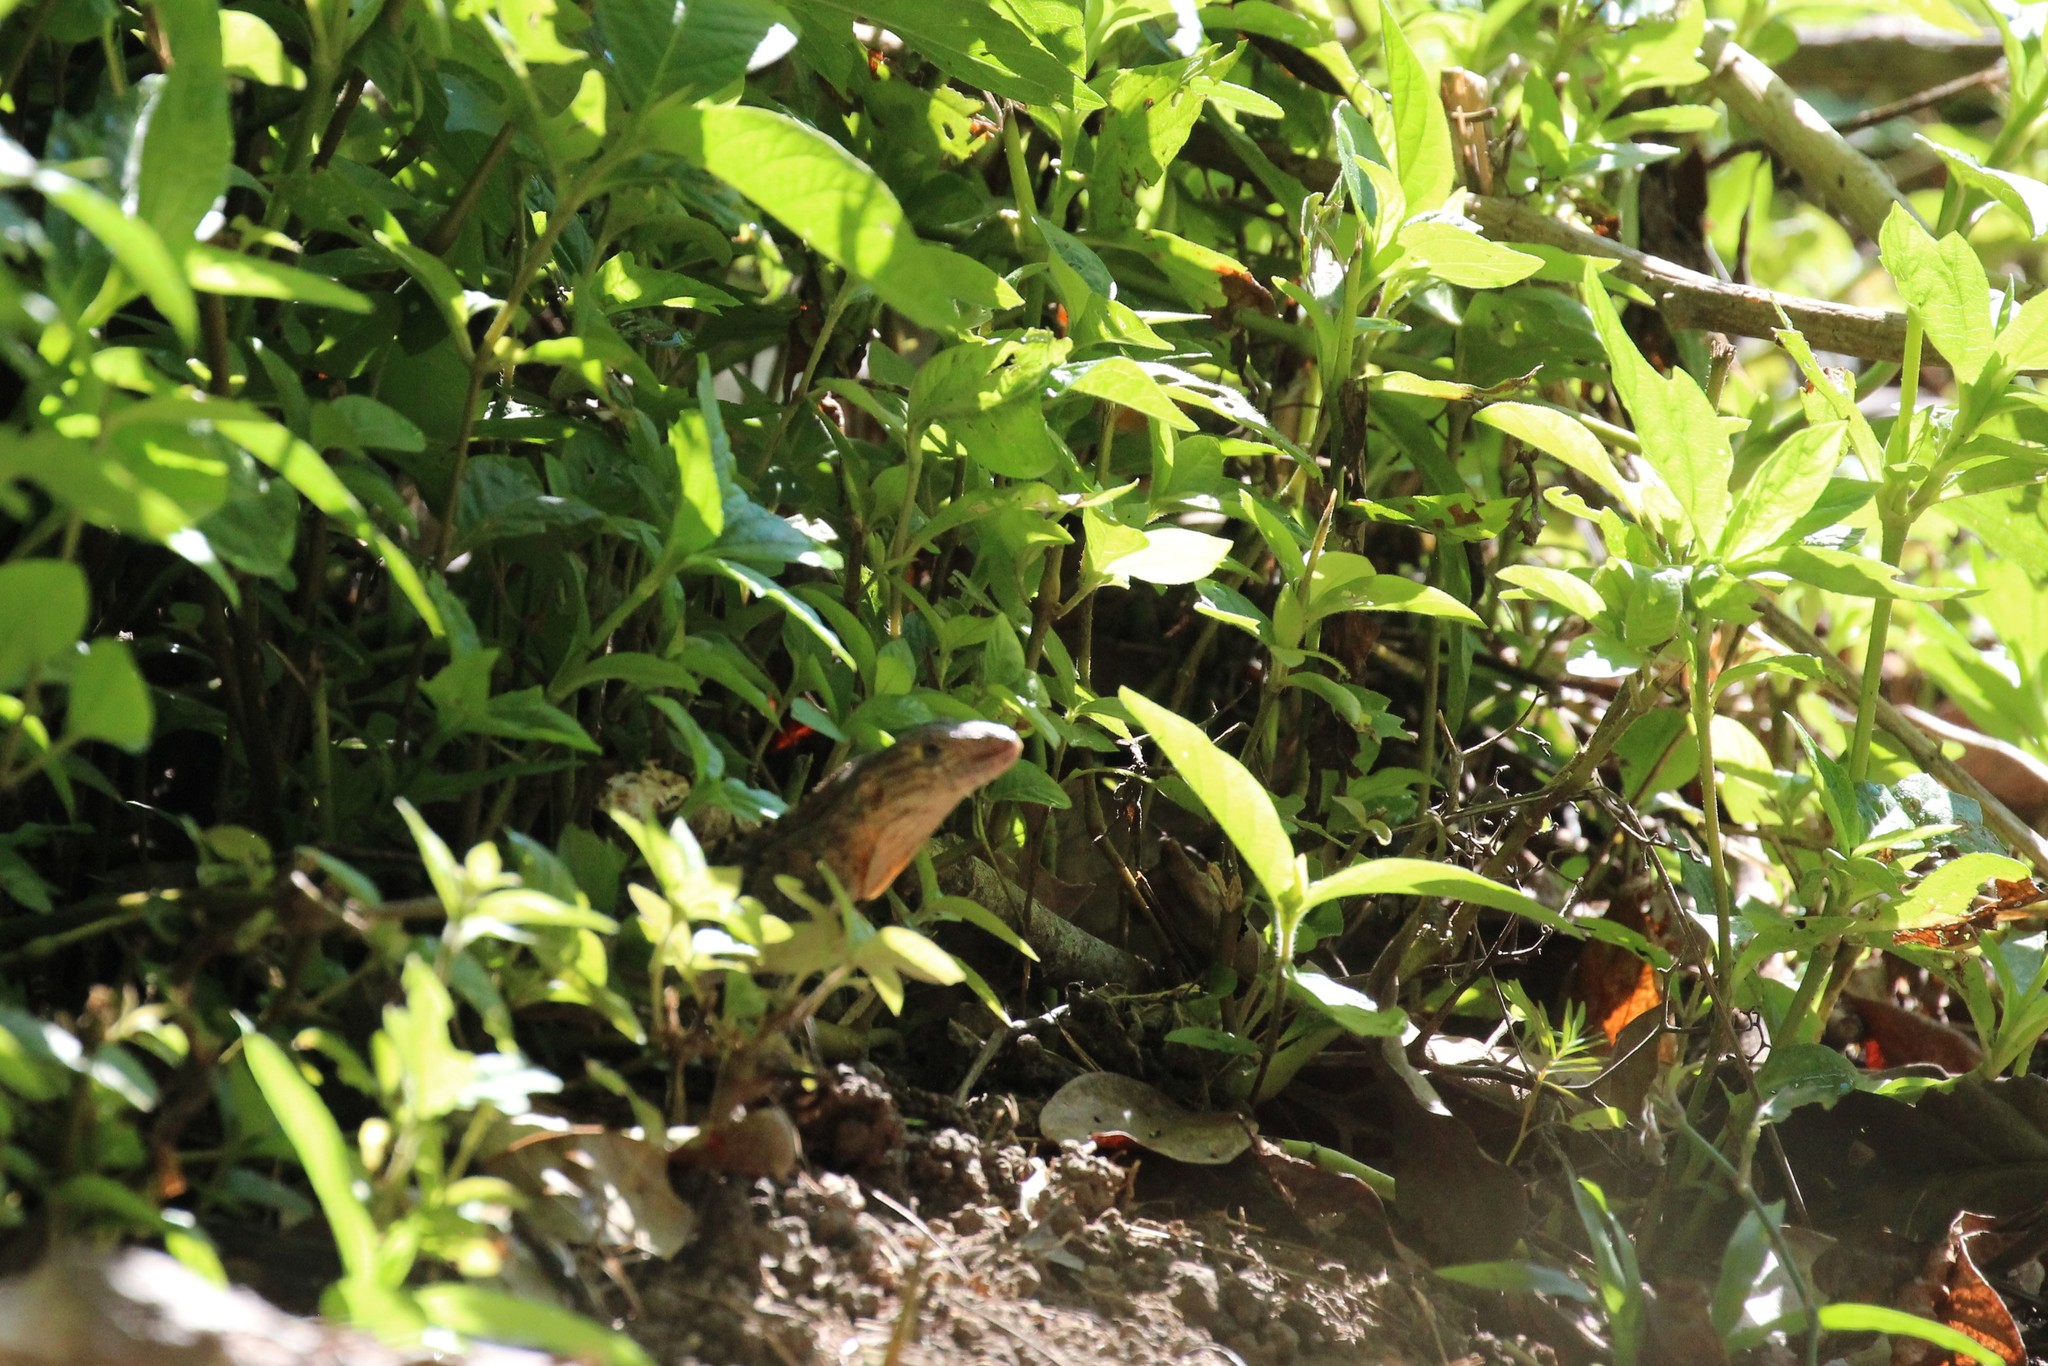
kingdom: Animalia
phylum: Chordata
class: Squamata
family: Iguanidae
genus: Ctenosaura
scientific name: Ctenosaura similis
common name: Black spiny-tailed iguana
